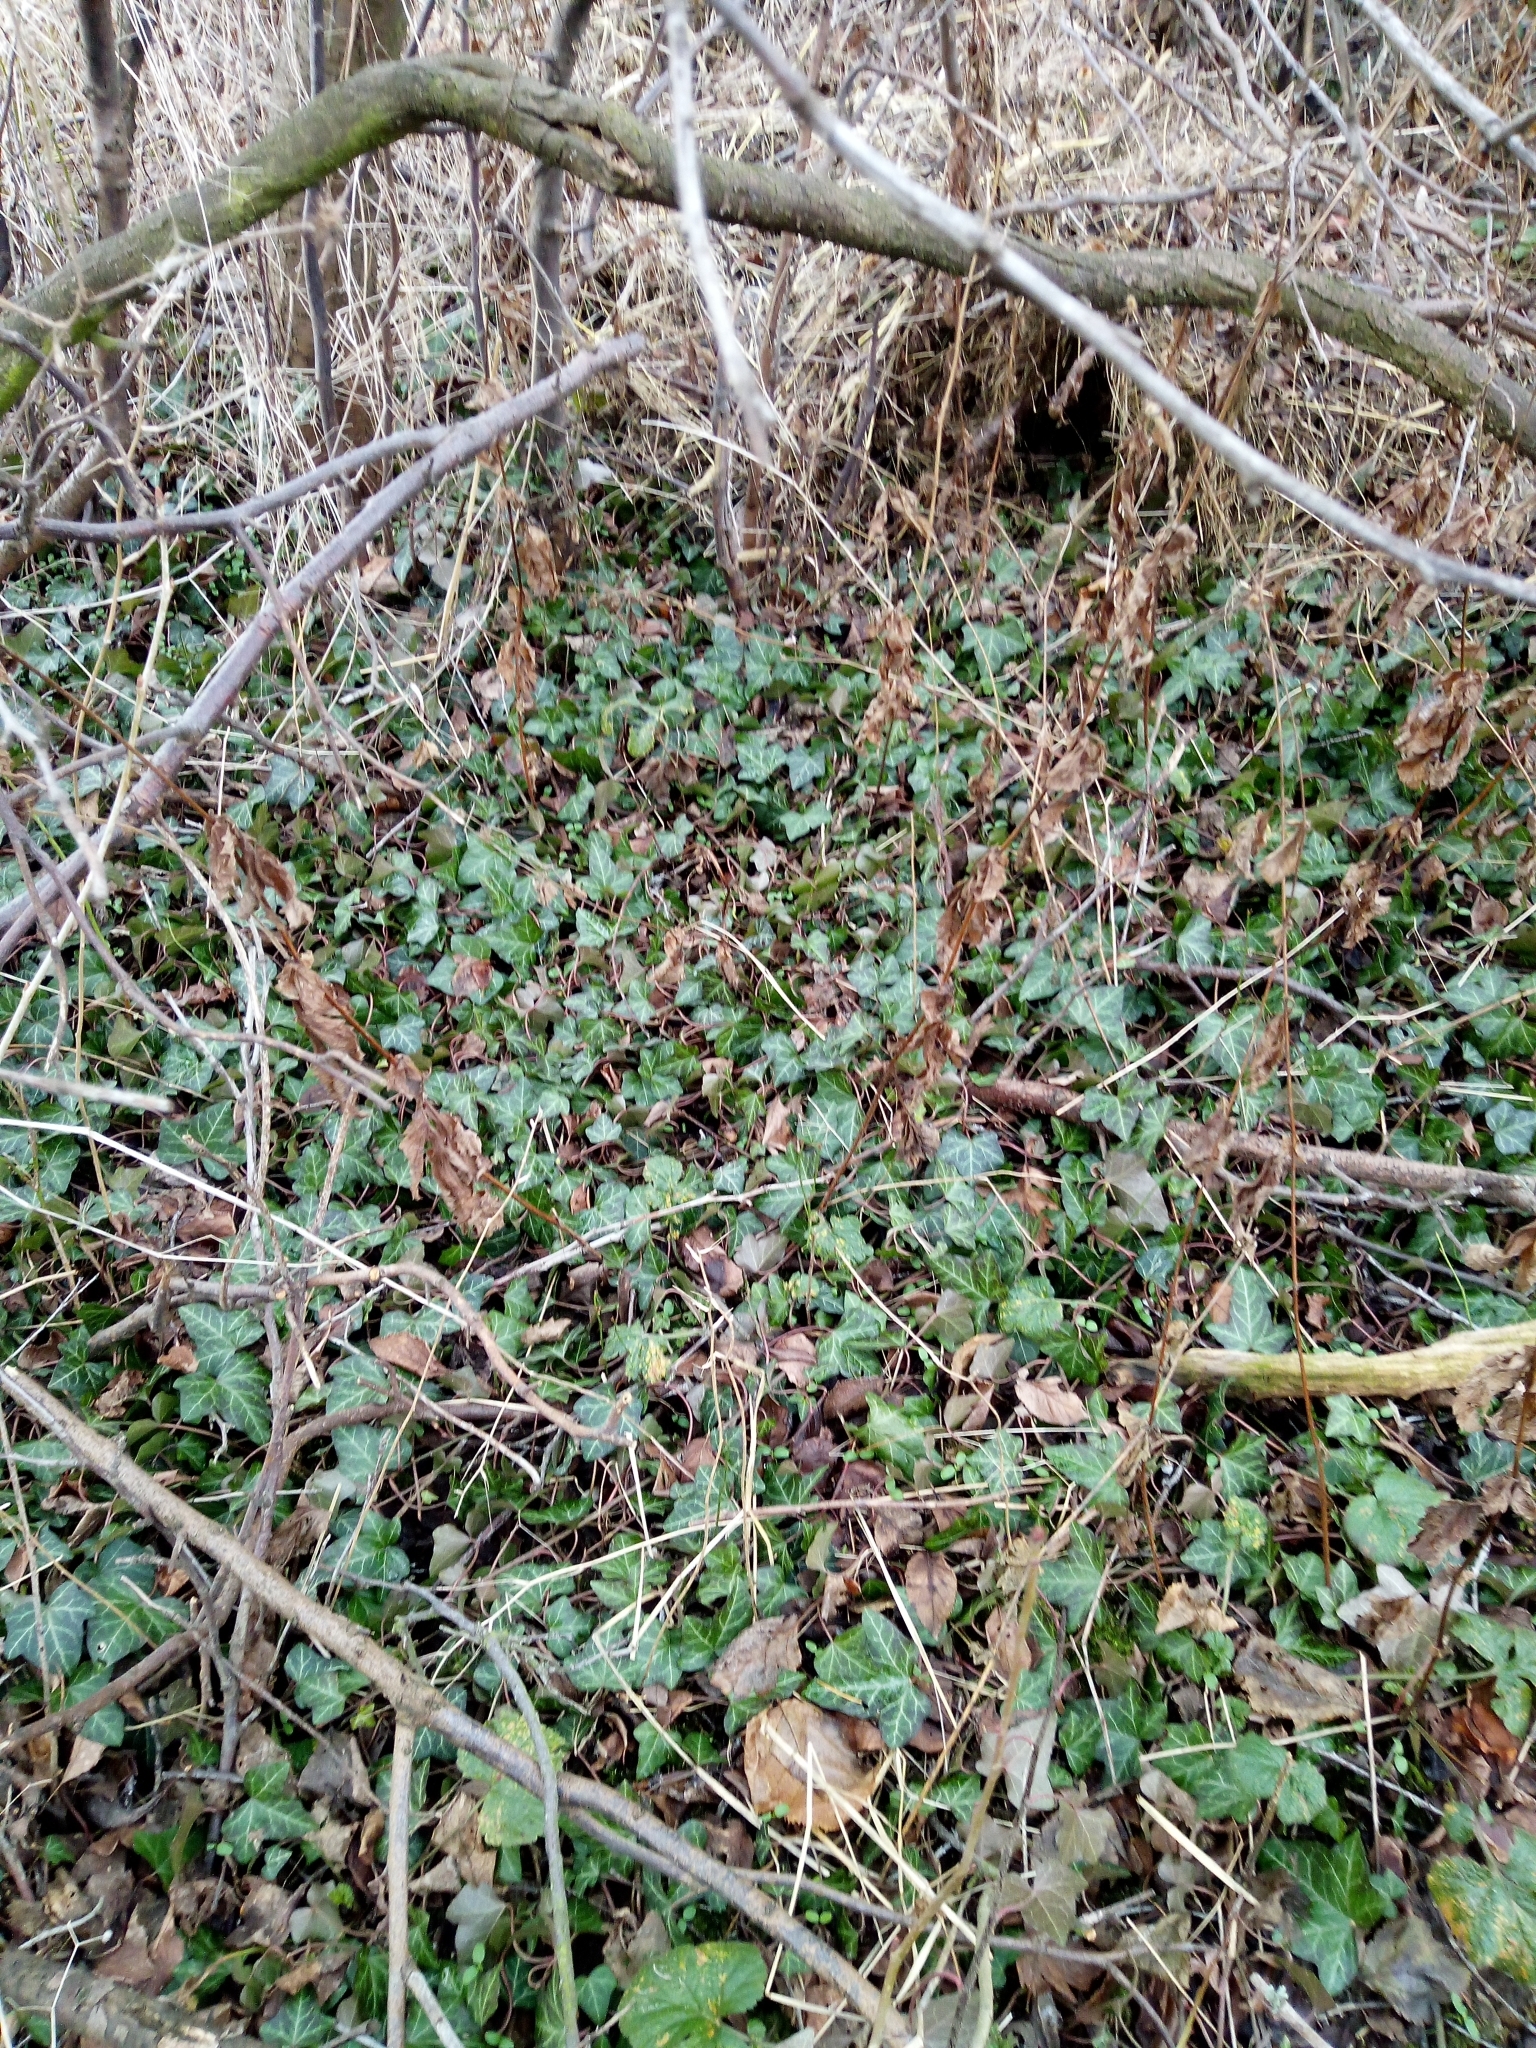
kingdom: Plantae
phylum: Tracheophyta
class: Magnoliopsida
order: Apiales
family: Araliaceae
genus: Hedera
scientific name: Hedera helix
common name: Ivy
